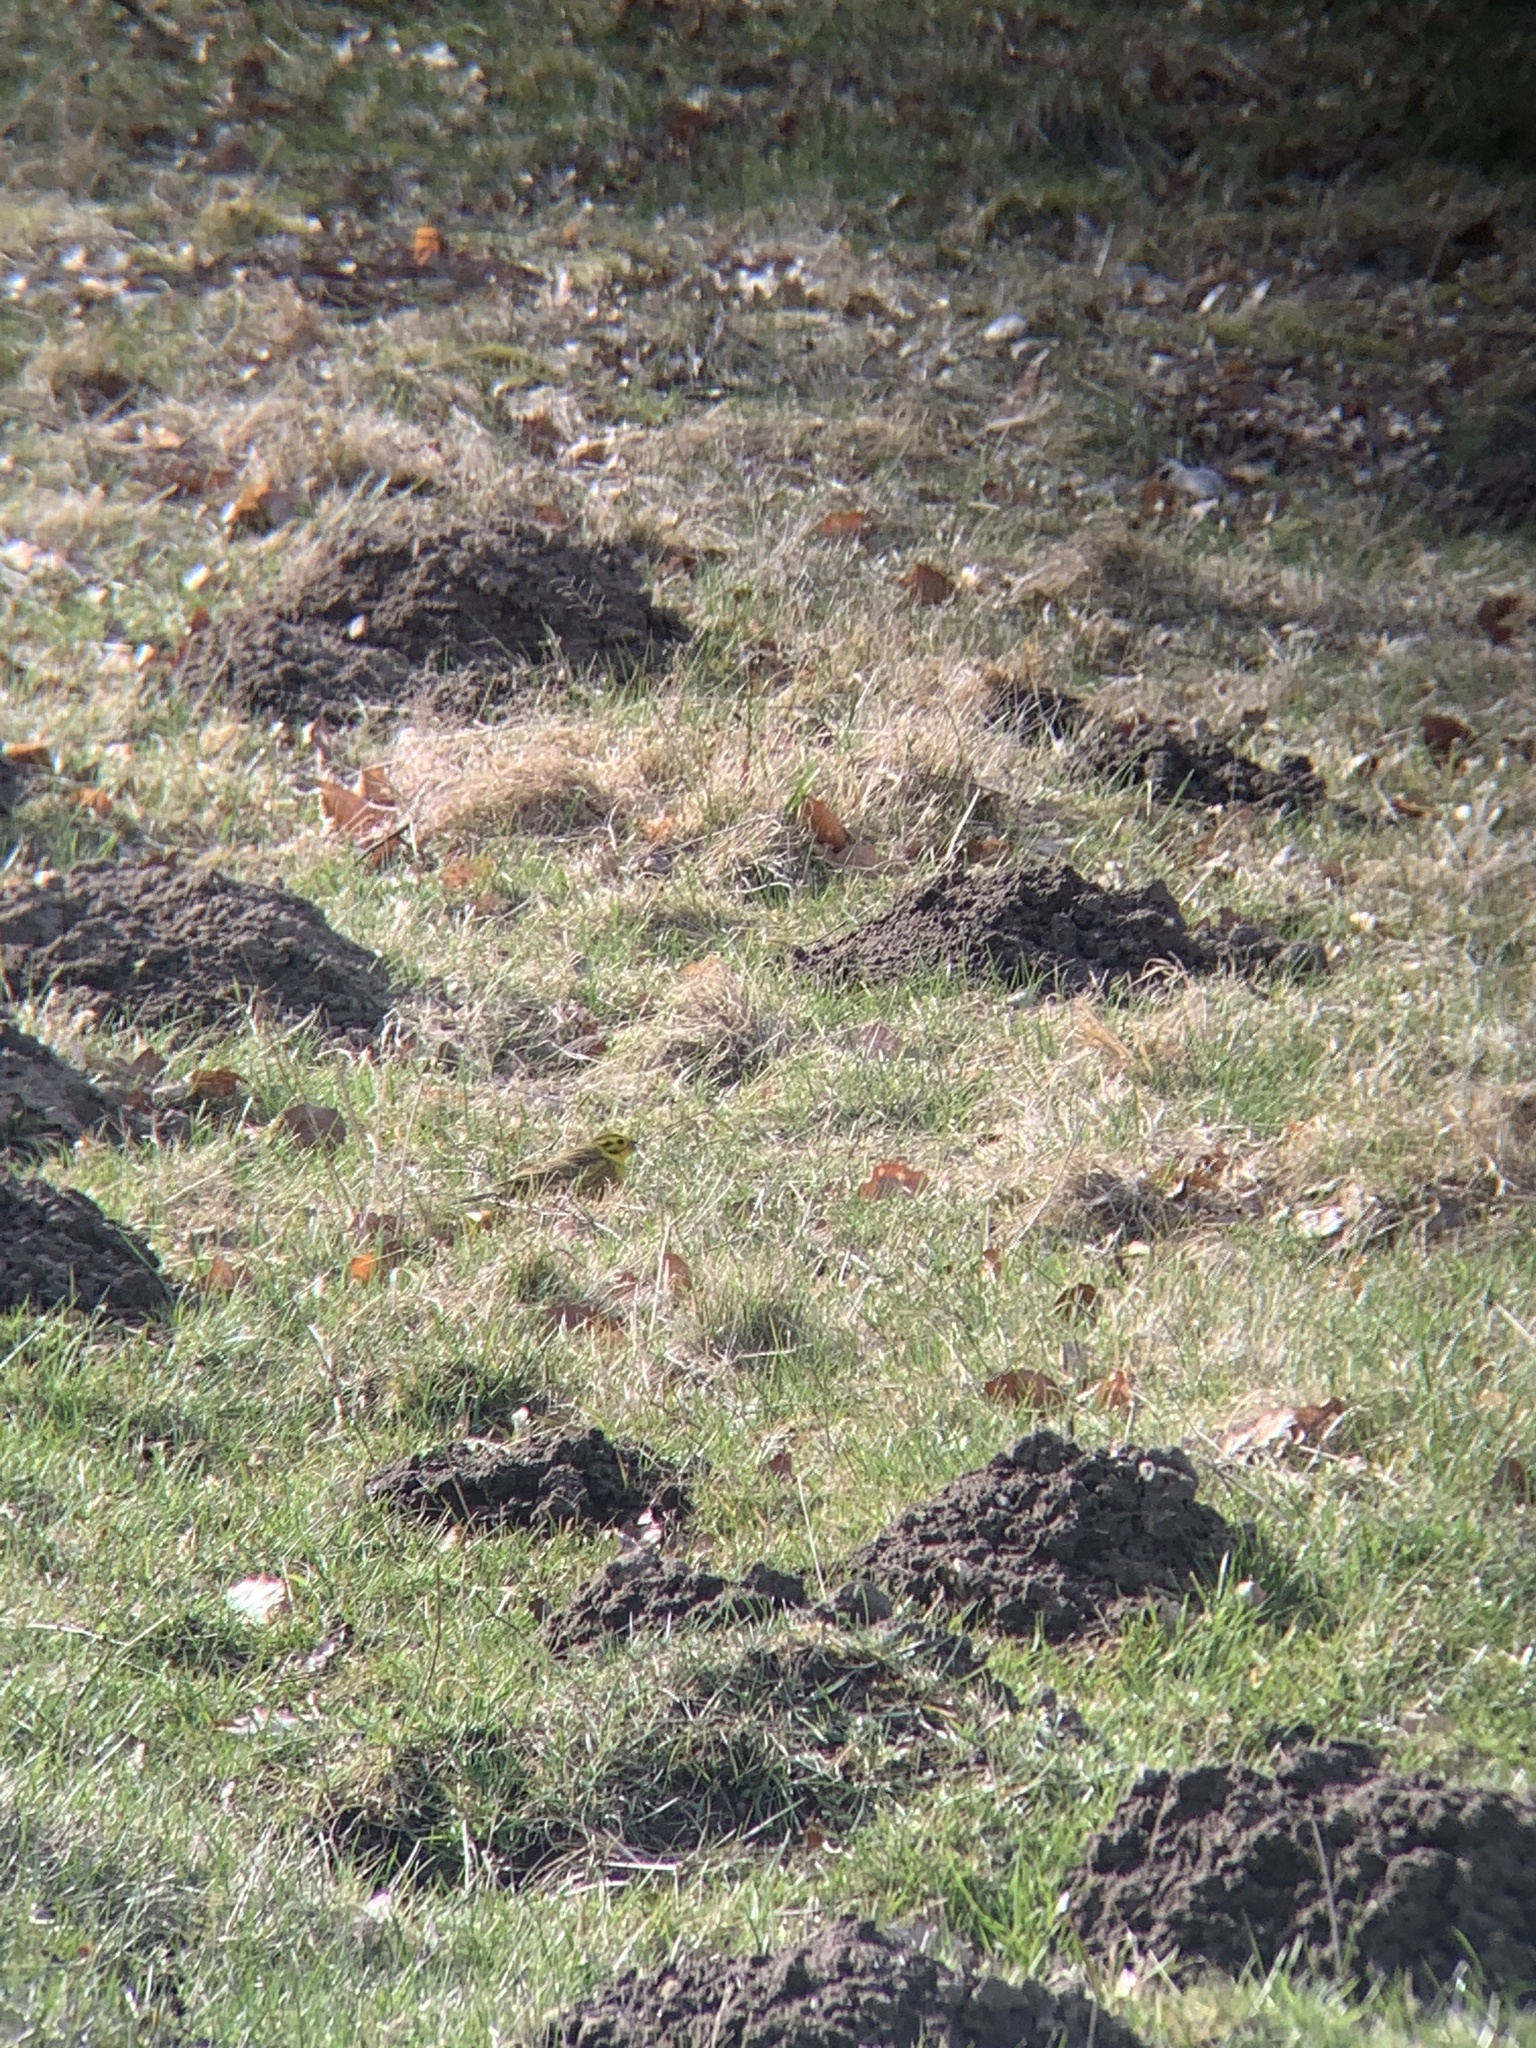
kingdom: Animalia
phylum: Chordata
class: Aves
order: Passeriformes
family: Emberizidae
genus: Emberiza
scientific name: Emberiza citrinella
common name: Yellowhammer
